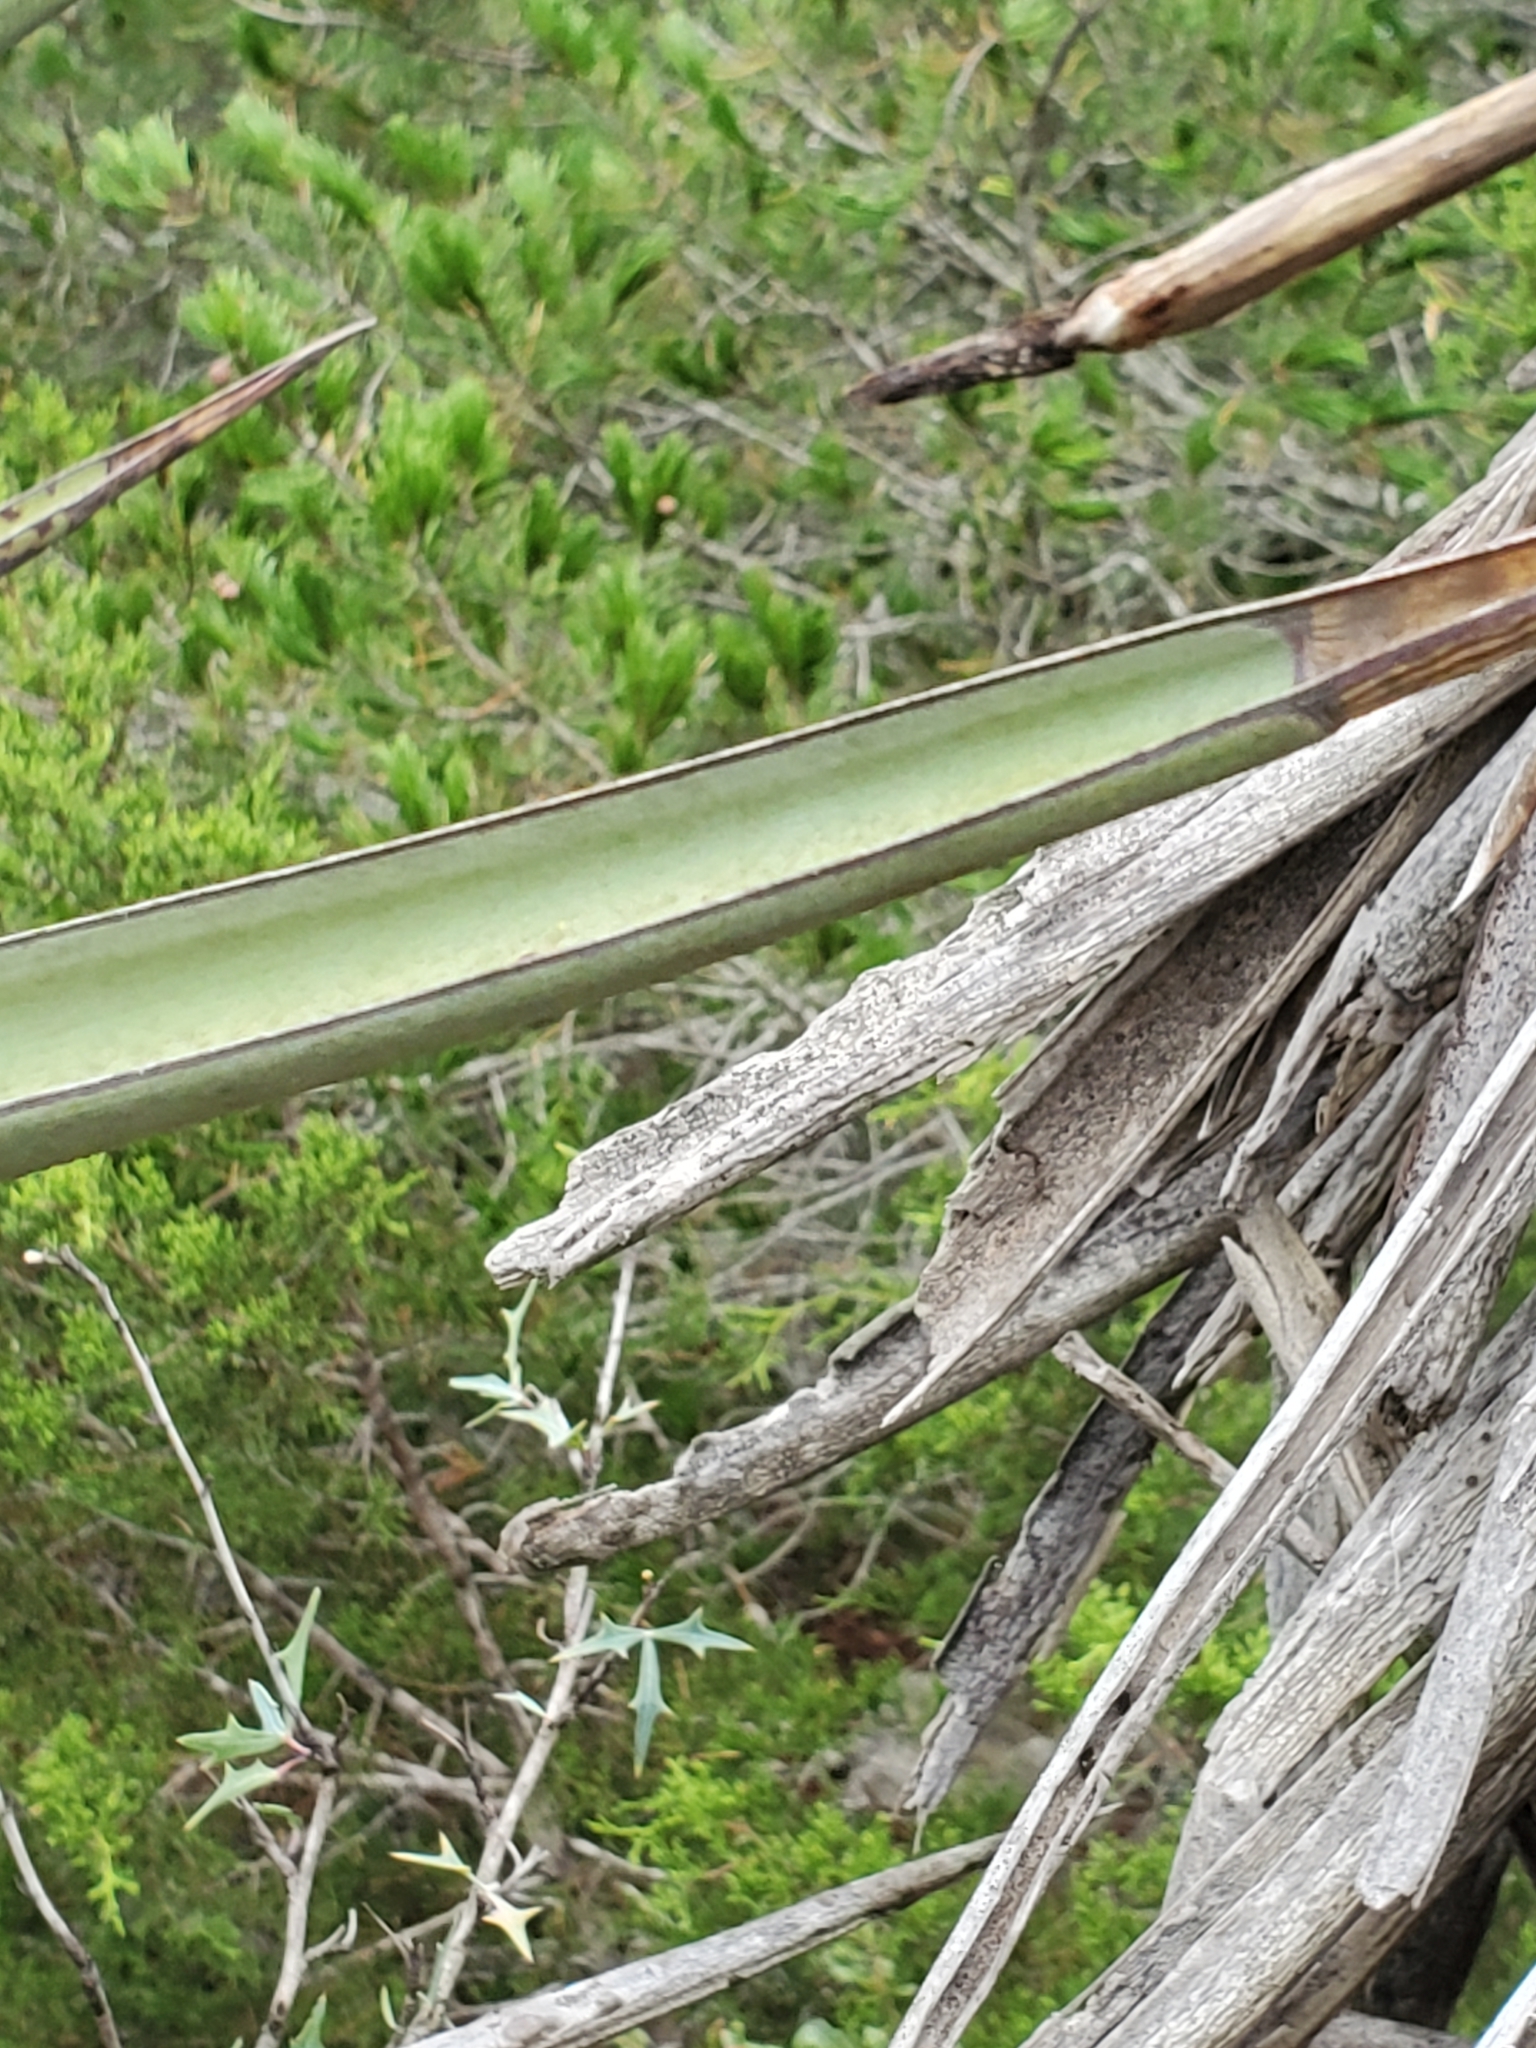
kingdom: Plantae
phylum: Tracheophyta
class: Liliopsida
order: Asparagales
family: Asparagaceae
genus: Yucca
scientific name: Yucca treculiana
